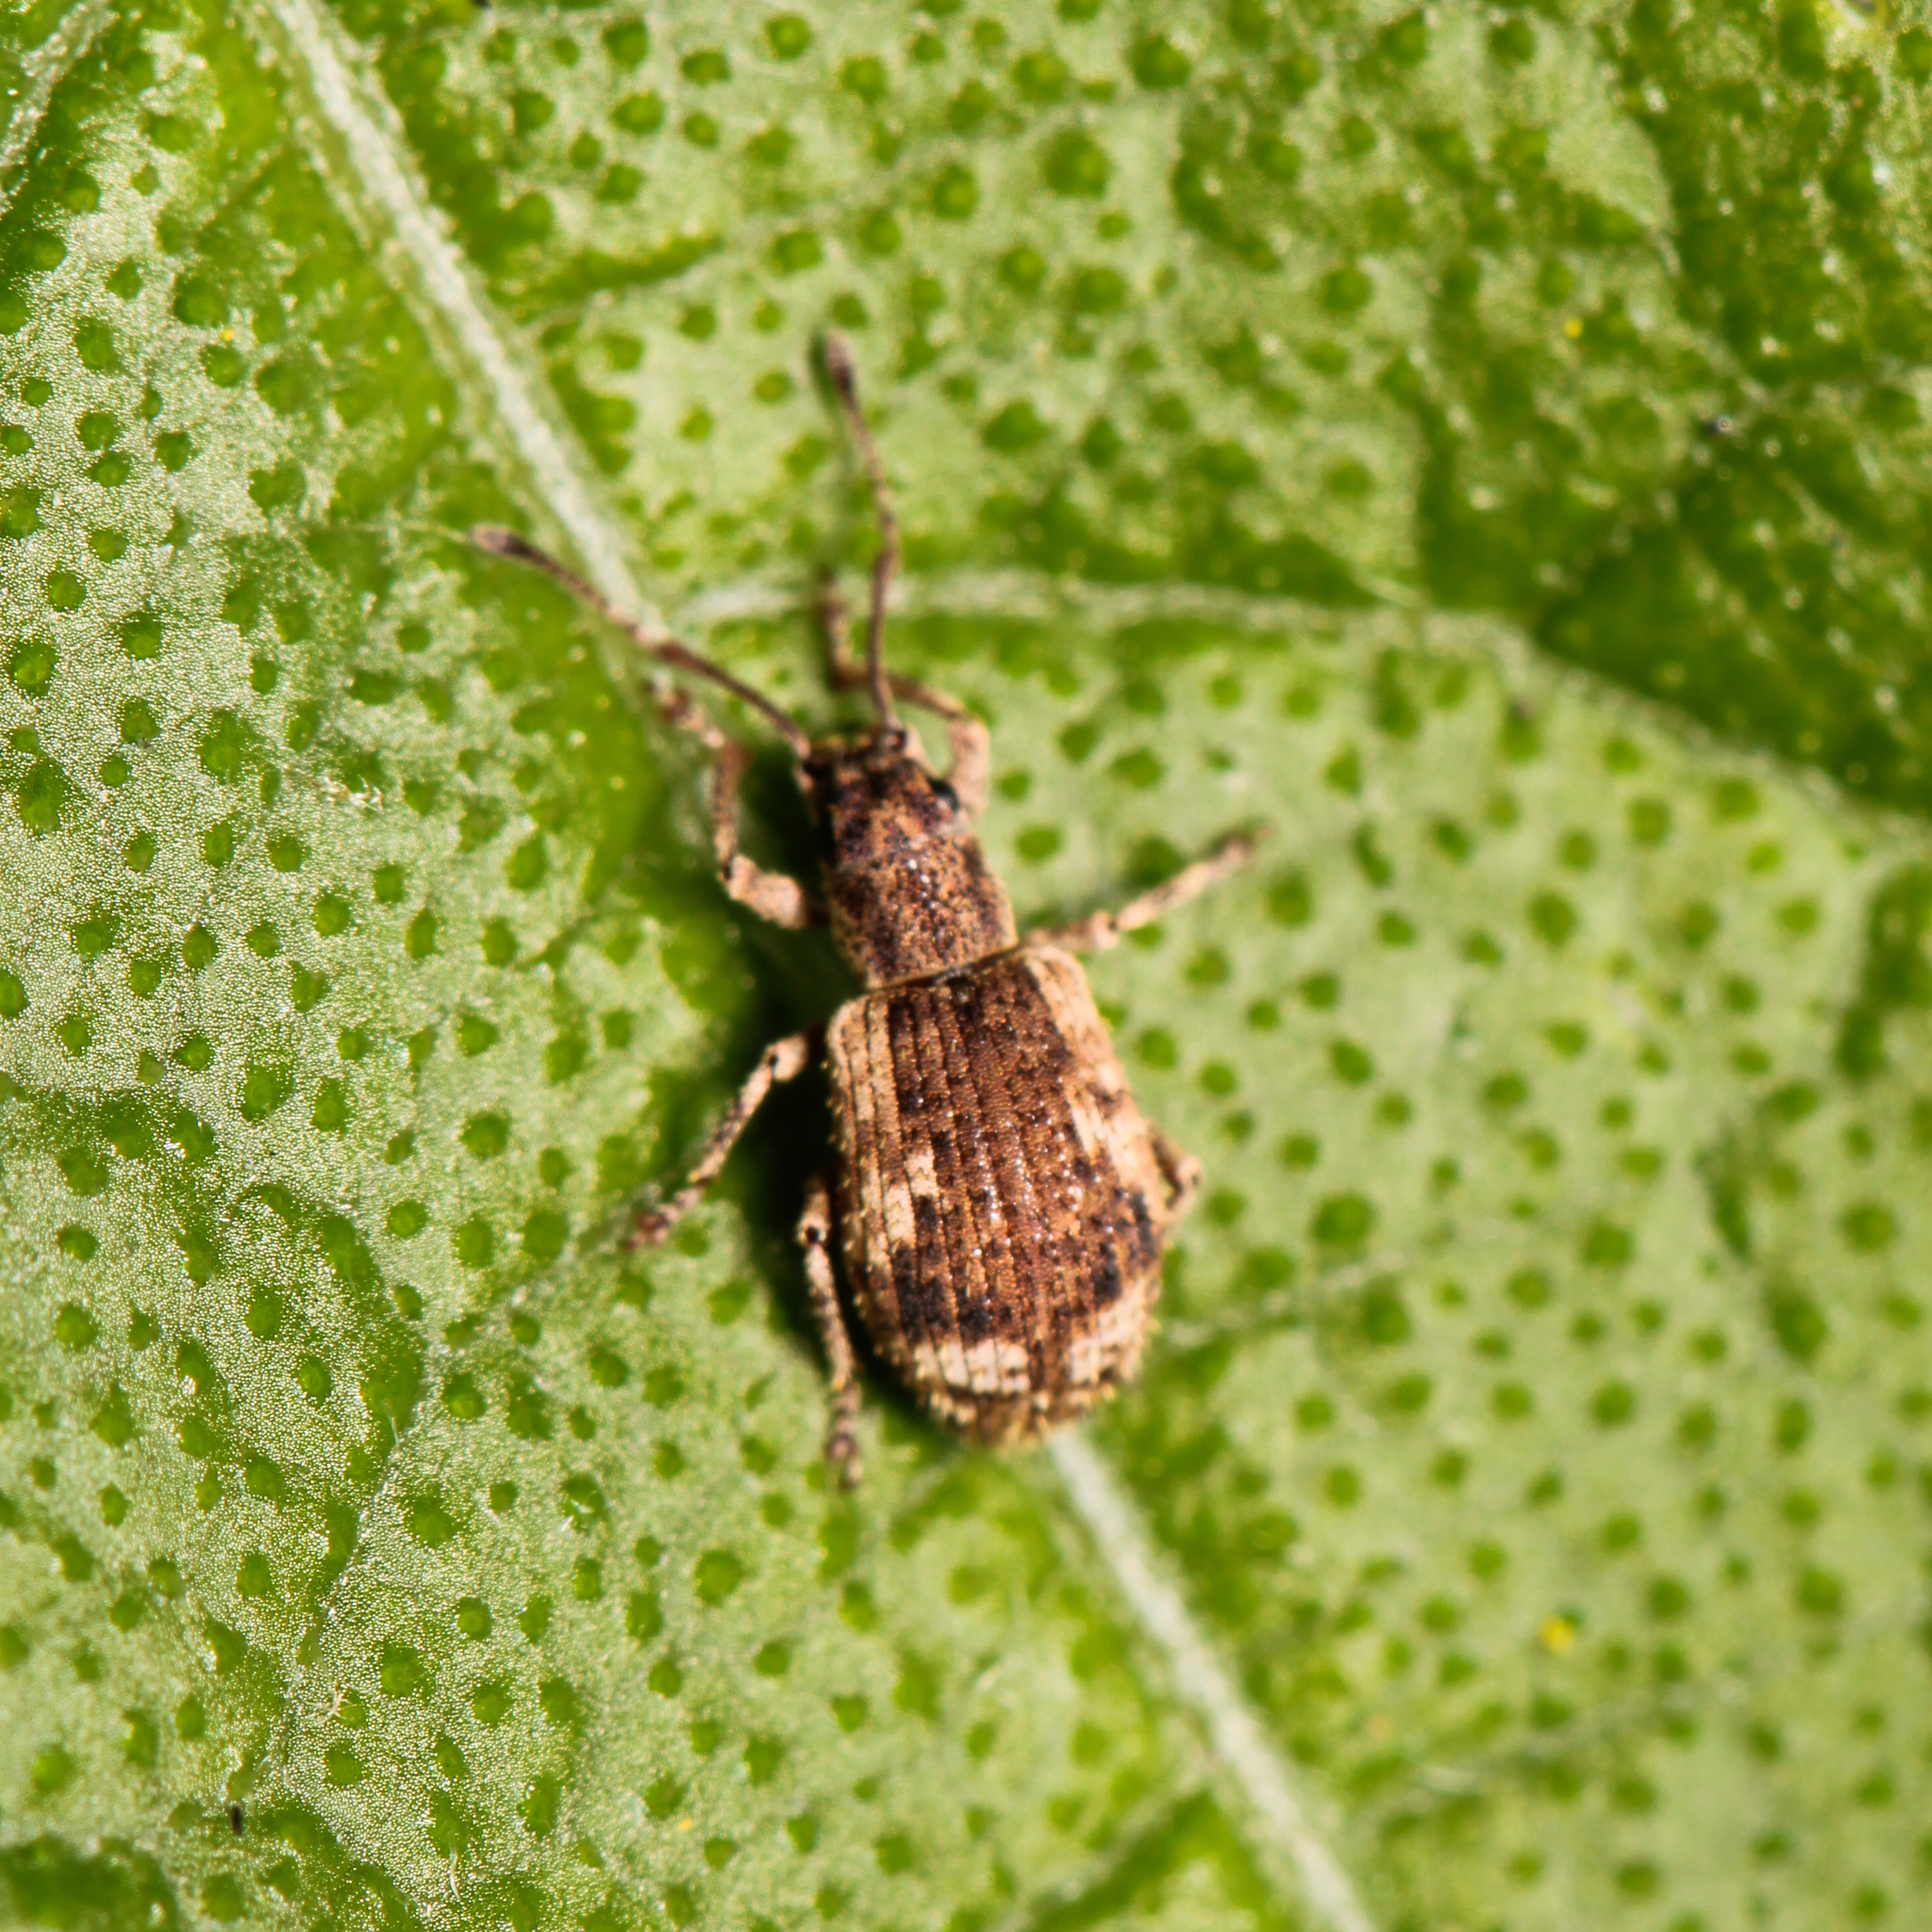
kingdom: Animalia
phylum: Arthropoda
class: Insecta
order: Coleoptera
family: Curculionidae
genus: Pseudoedophrys
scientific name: Pseudoedophrys hilleri
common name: Weevil
